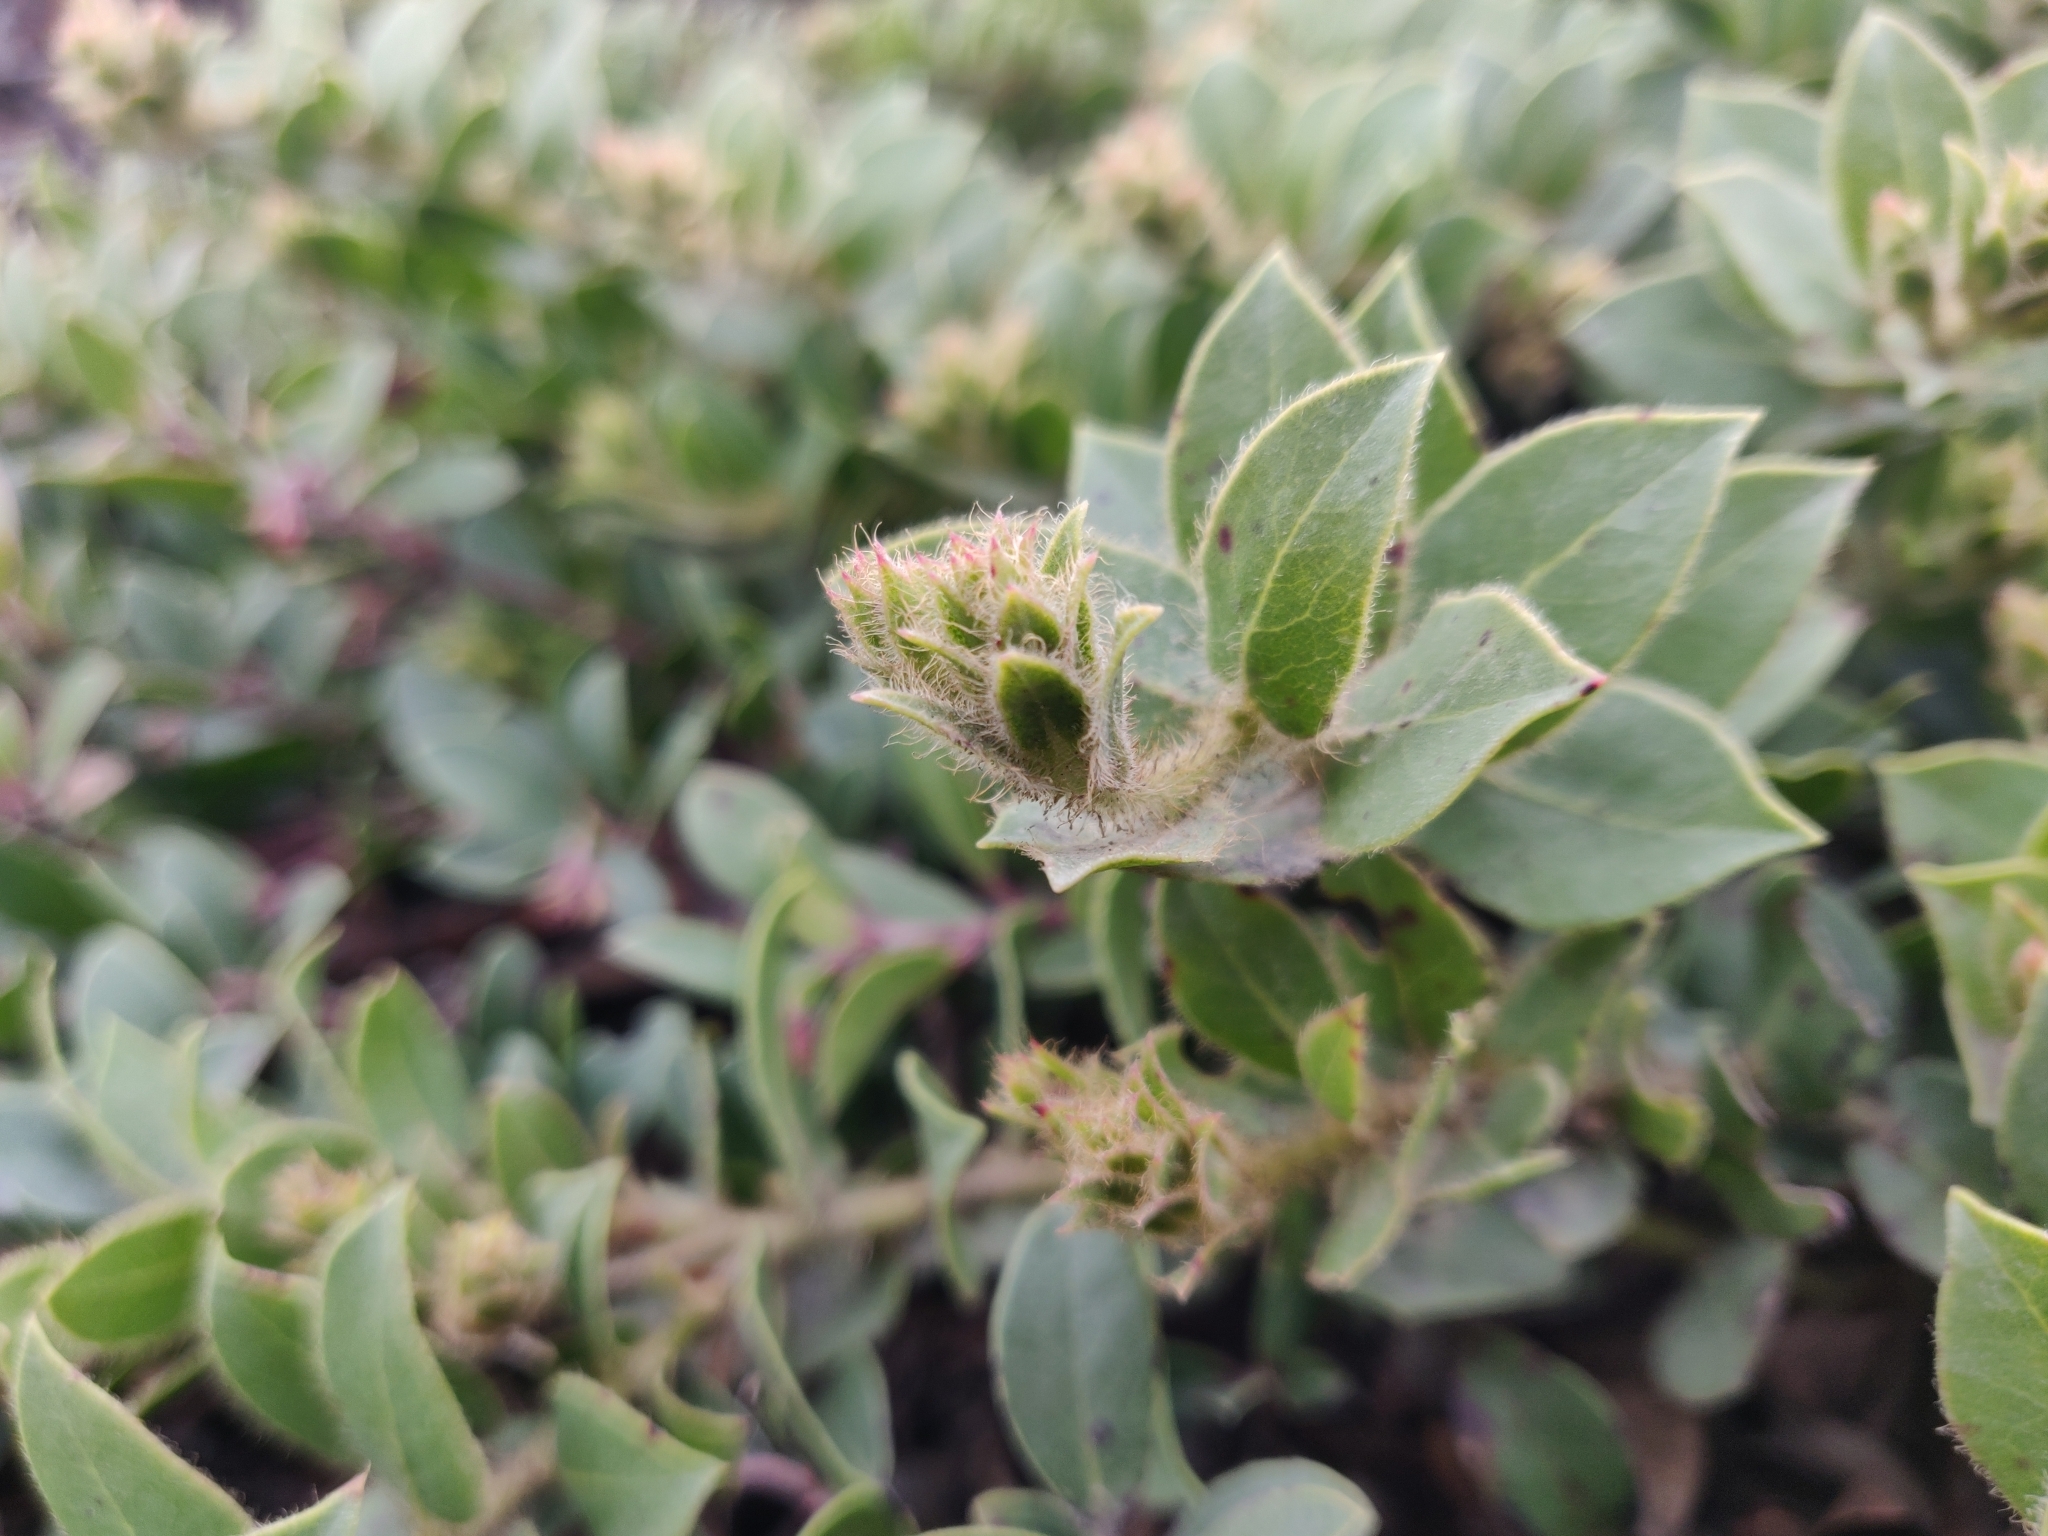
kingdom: Plantae
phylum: Tracheophyta
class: Magnoliopsida
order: Ericales
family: Ericaceae
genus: Arctostaphylos
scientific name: Arctostaphylos imbricata
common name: San bruno mountain manzanita
